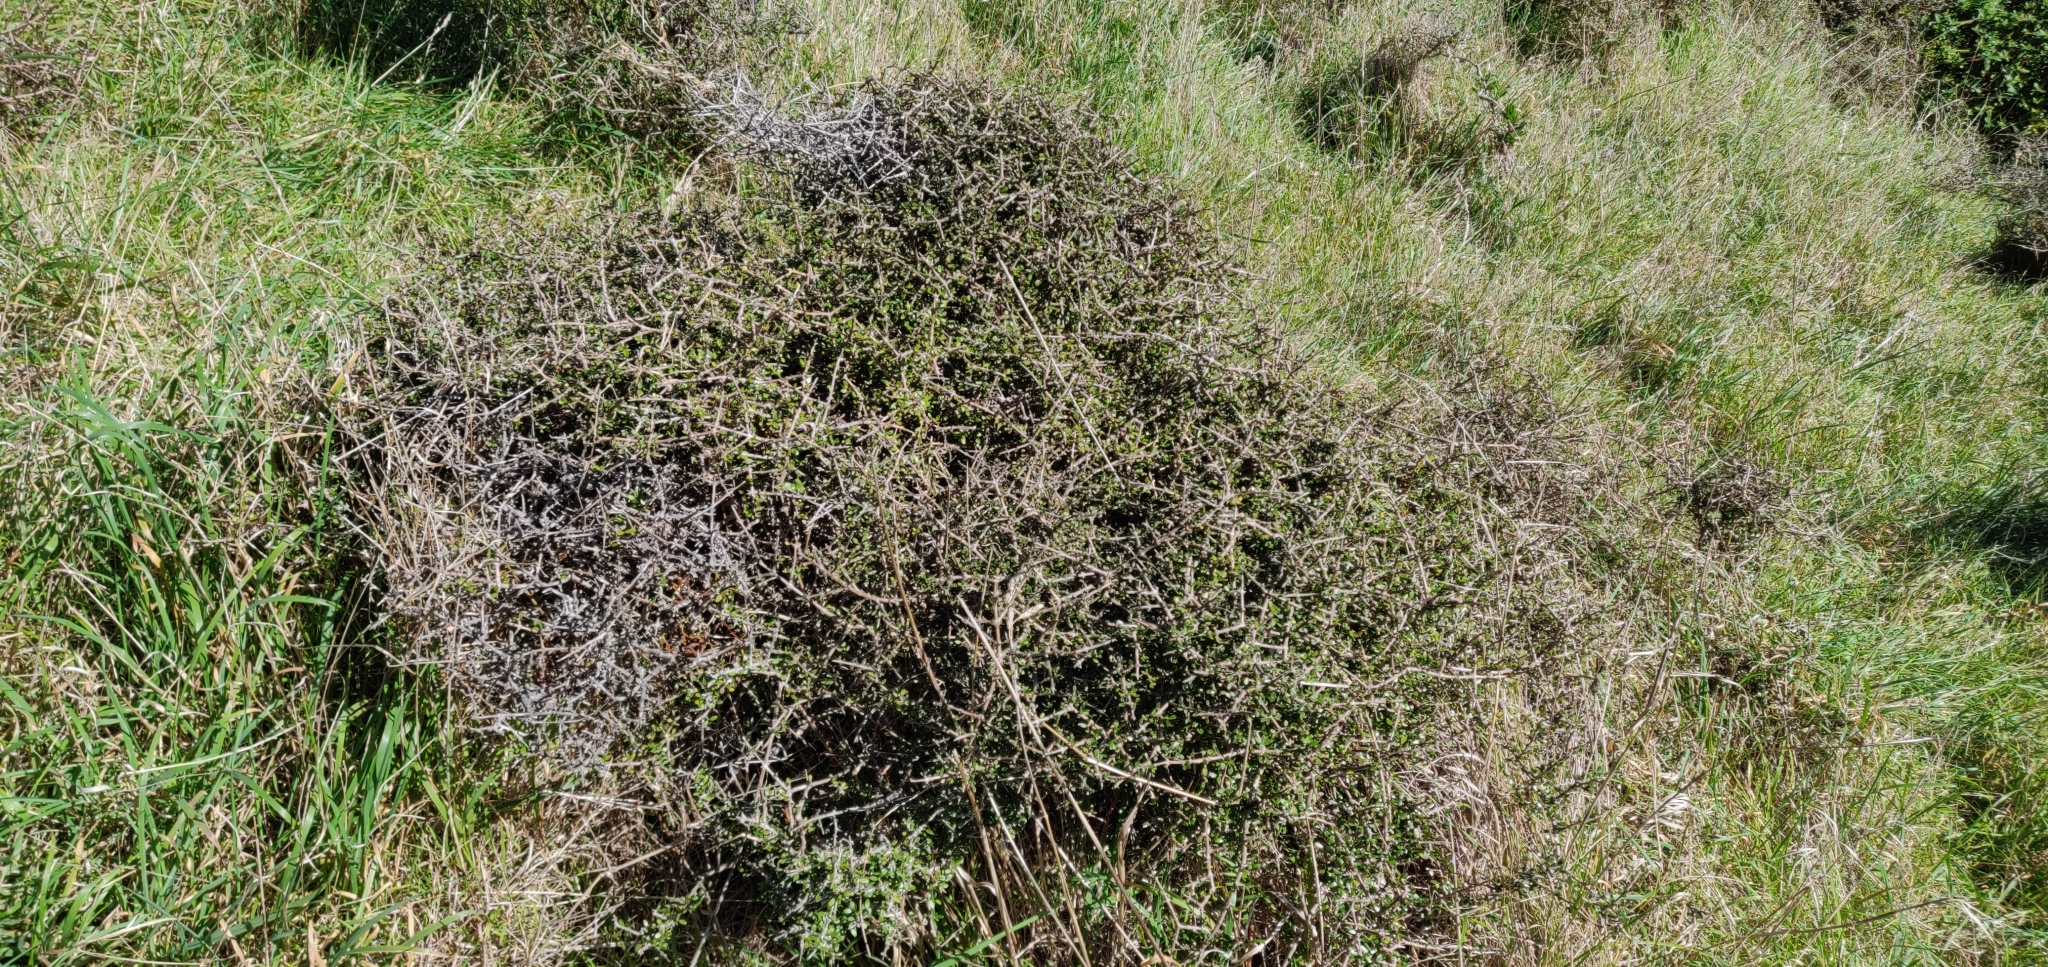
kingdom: Plantae
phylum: Tracheophyta
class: Magnoliopsida
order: Gentianales
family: Rubiaceae
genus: Coprosma
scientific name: Coprosma propinqua
